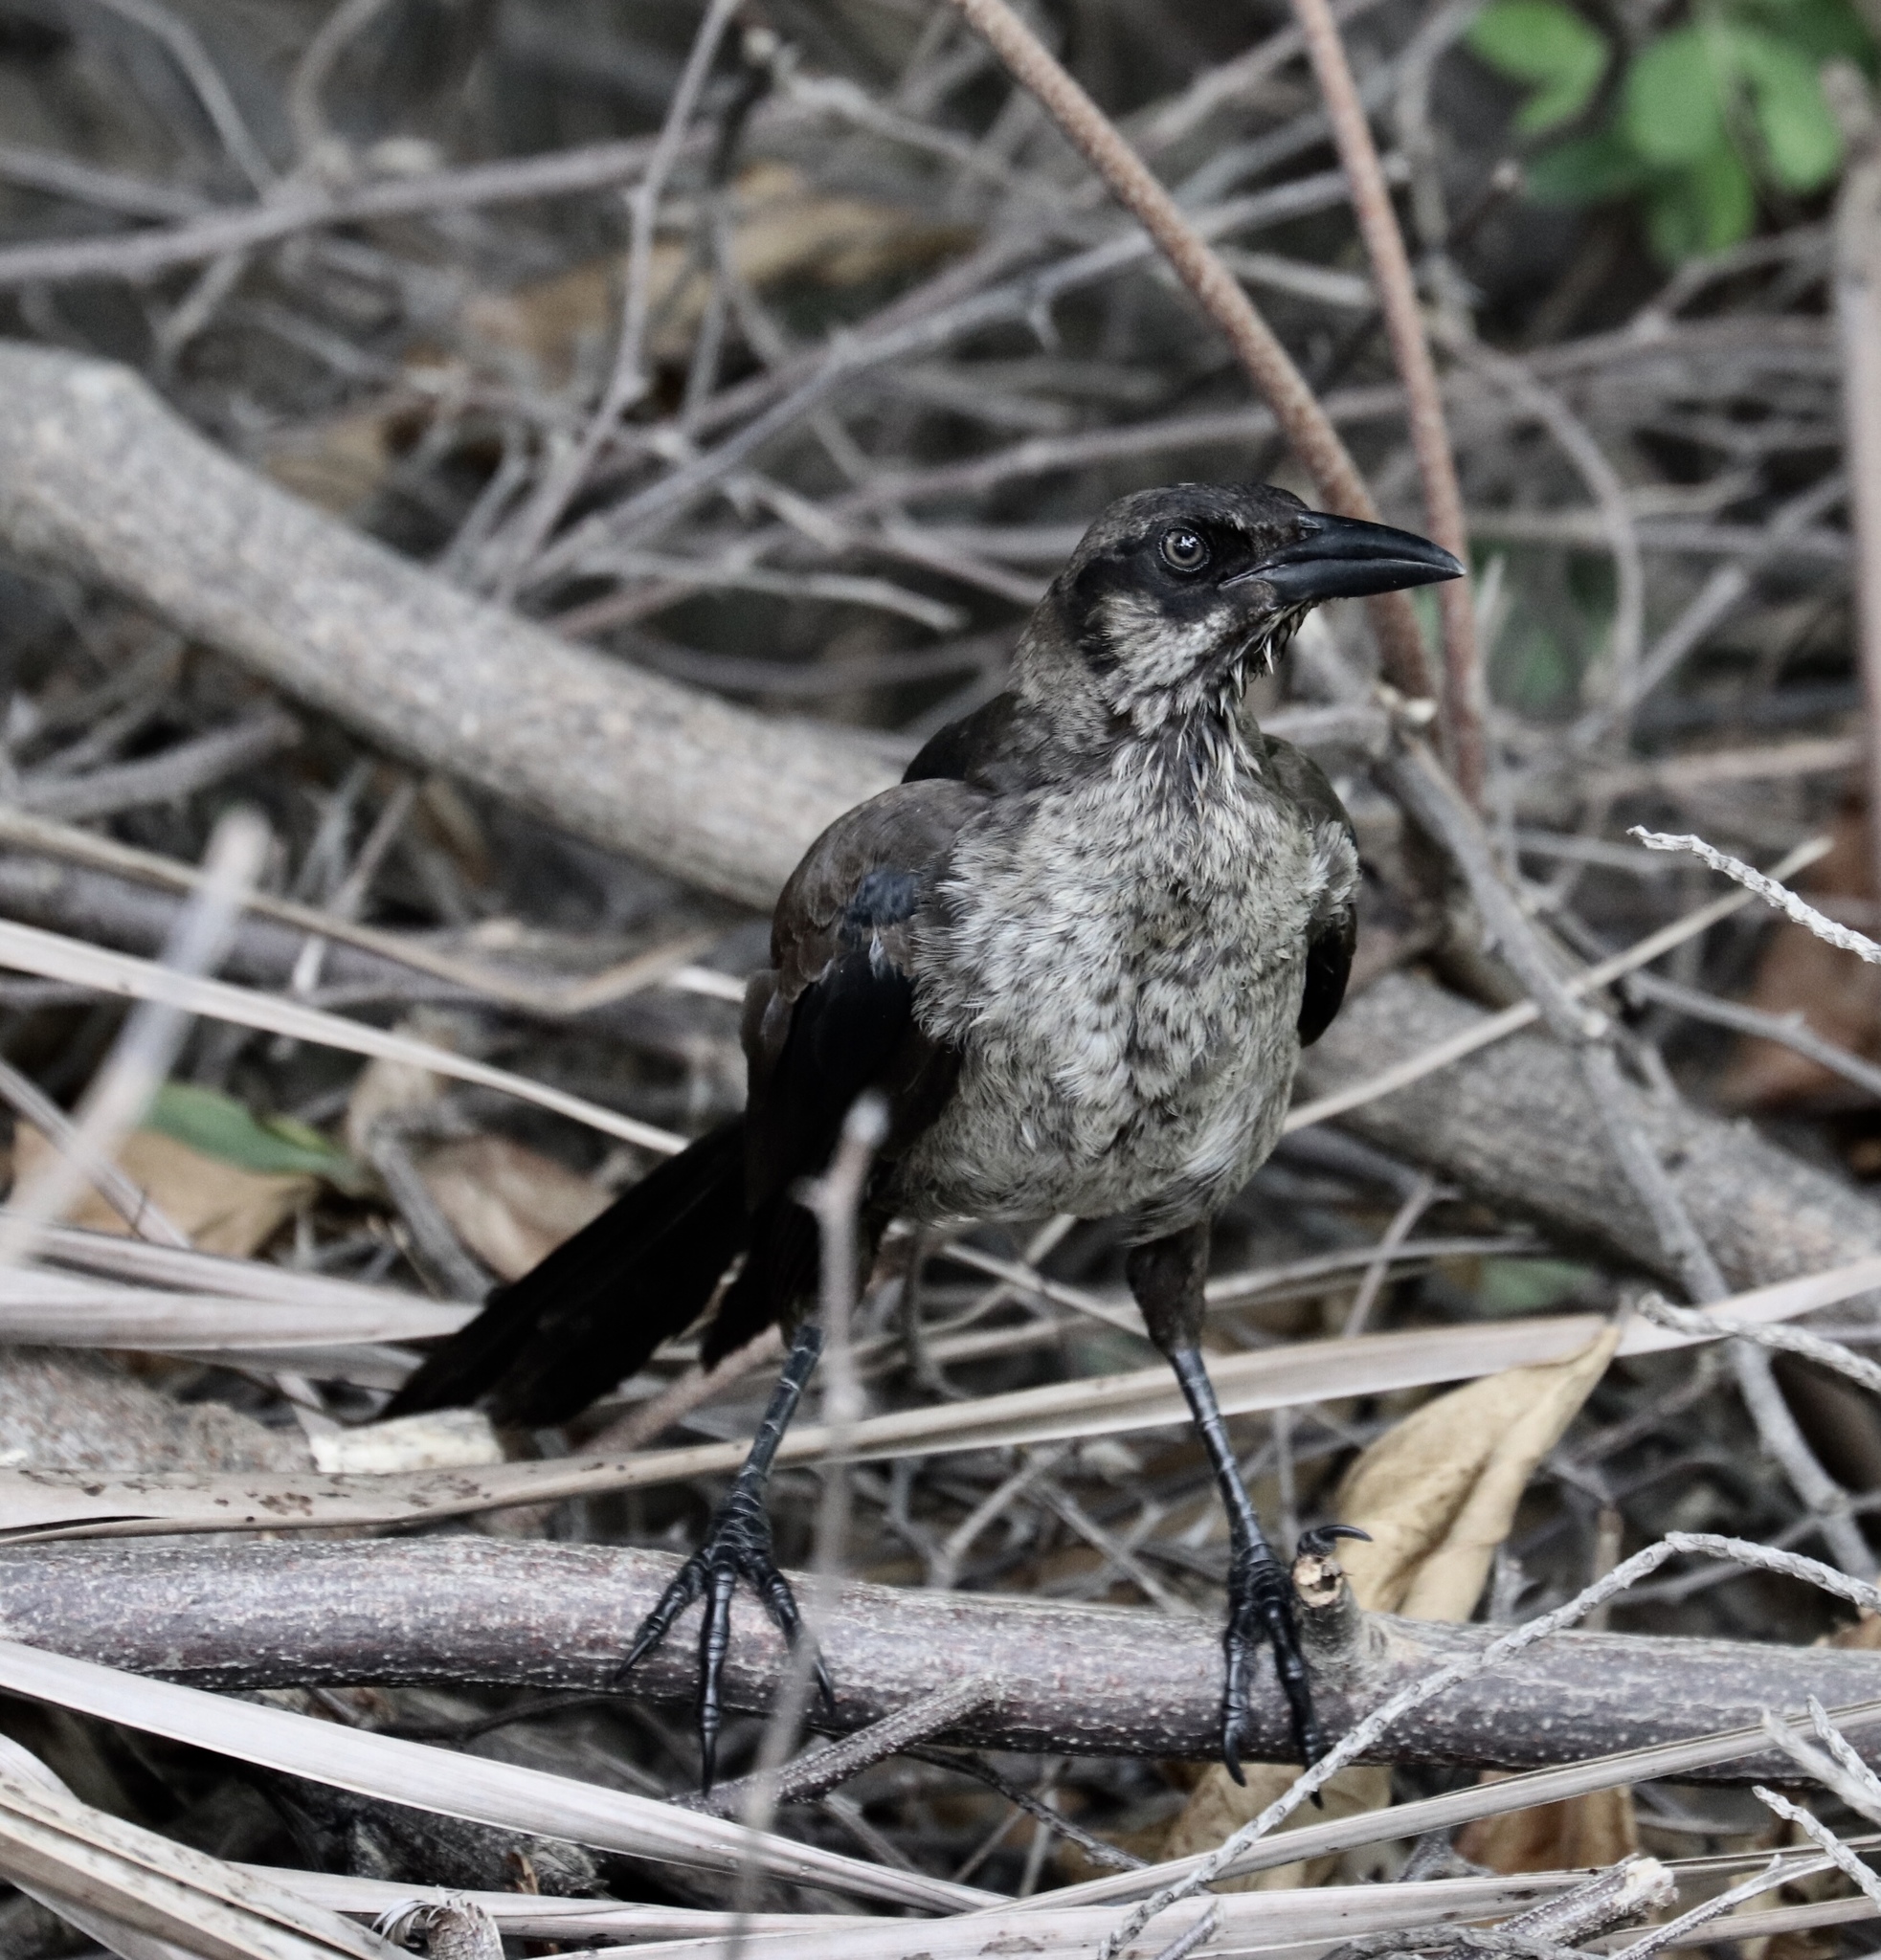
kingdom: Animalia
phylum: Chordata
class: Aves
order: Passeriformes
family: Icteridae
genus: Quiscalus
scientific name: Quiscalus mexicanus
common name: Great-tailed grackle
